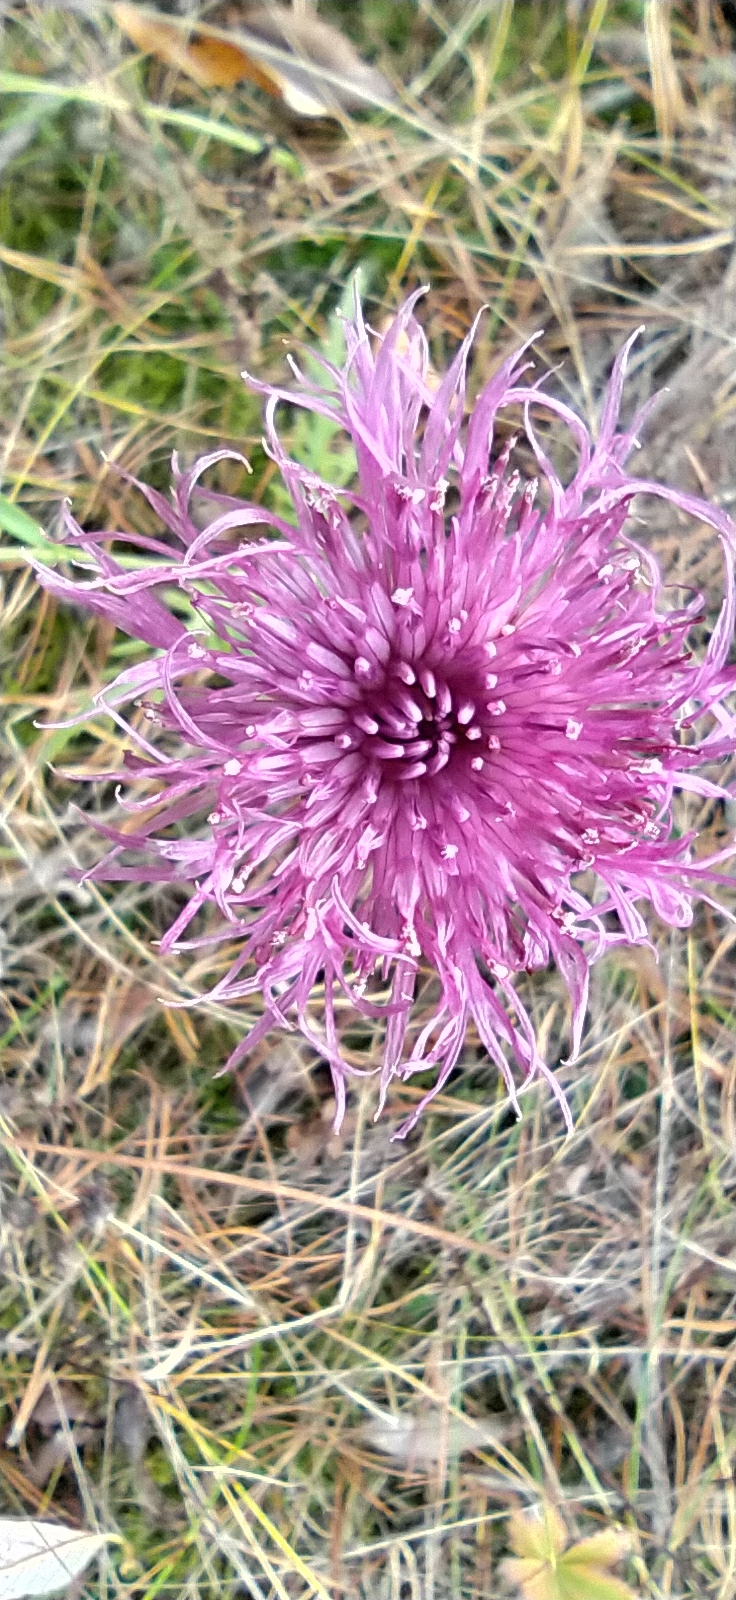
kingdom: Plantae
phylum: Tracheophyta
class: Magnoliopsida
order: Asterales
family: Asteraceae
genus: Centaurea
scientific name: Centaurea scabiosa
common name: Greater knapweed
